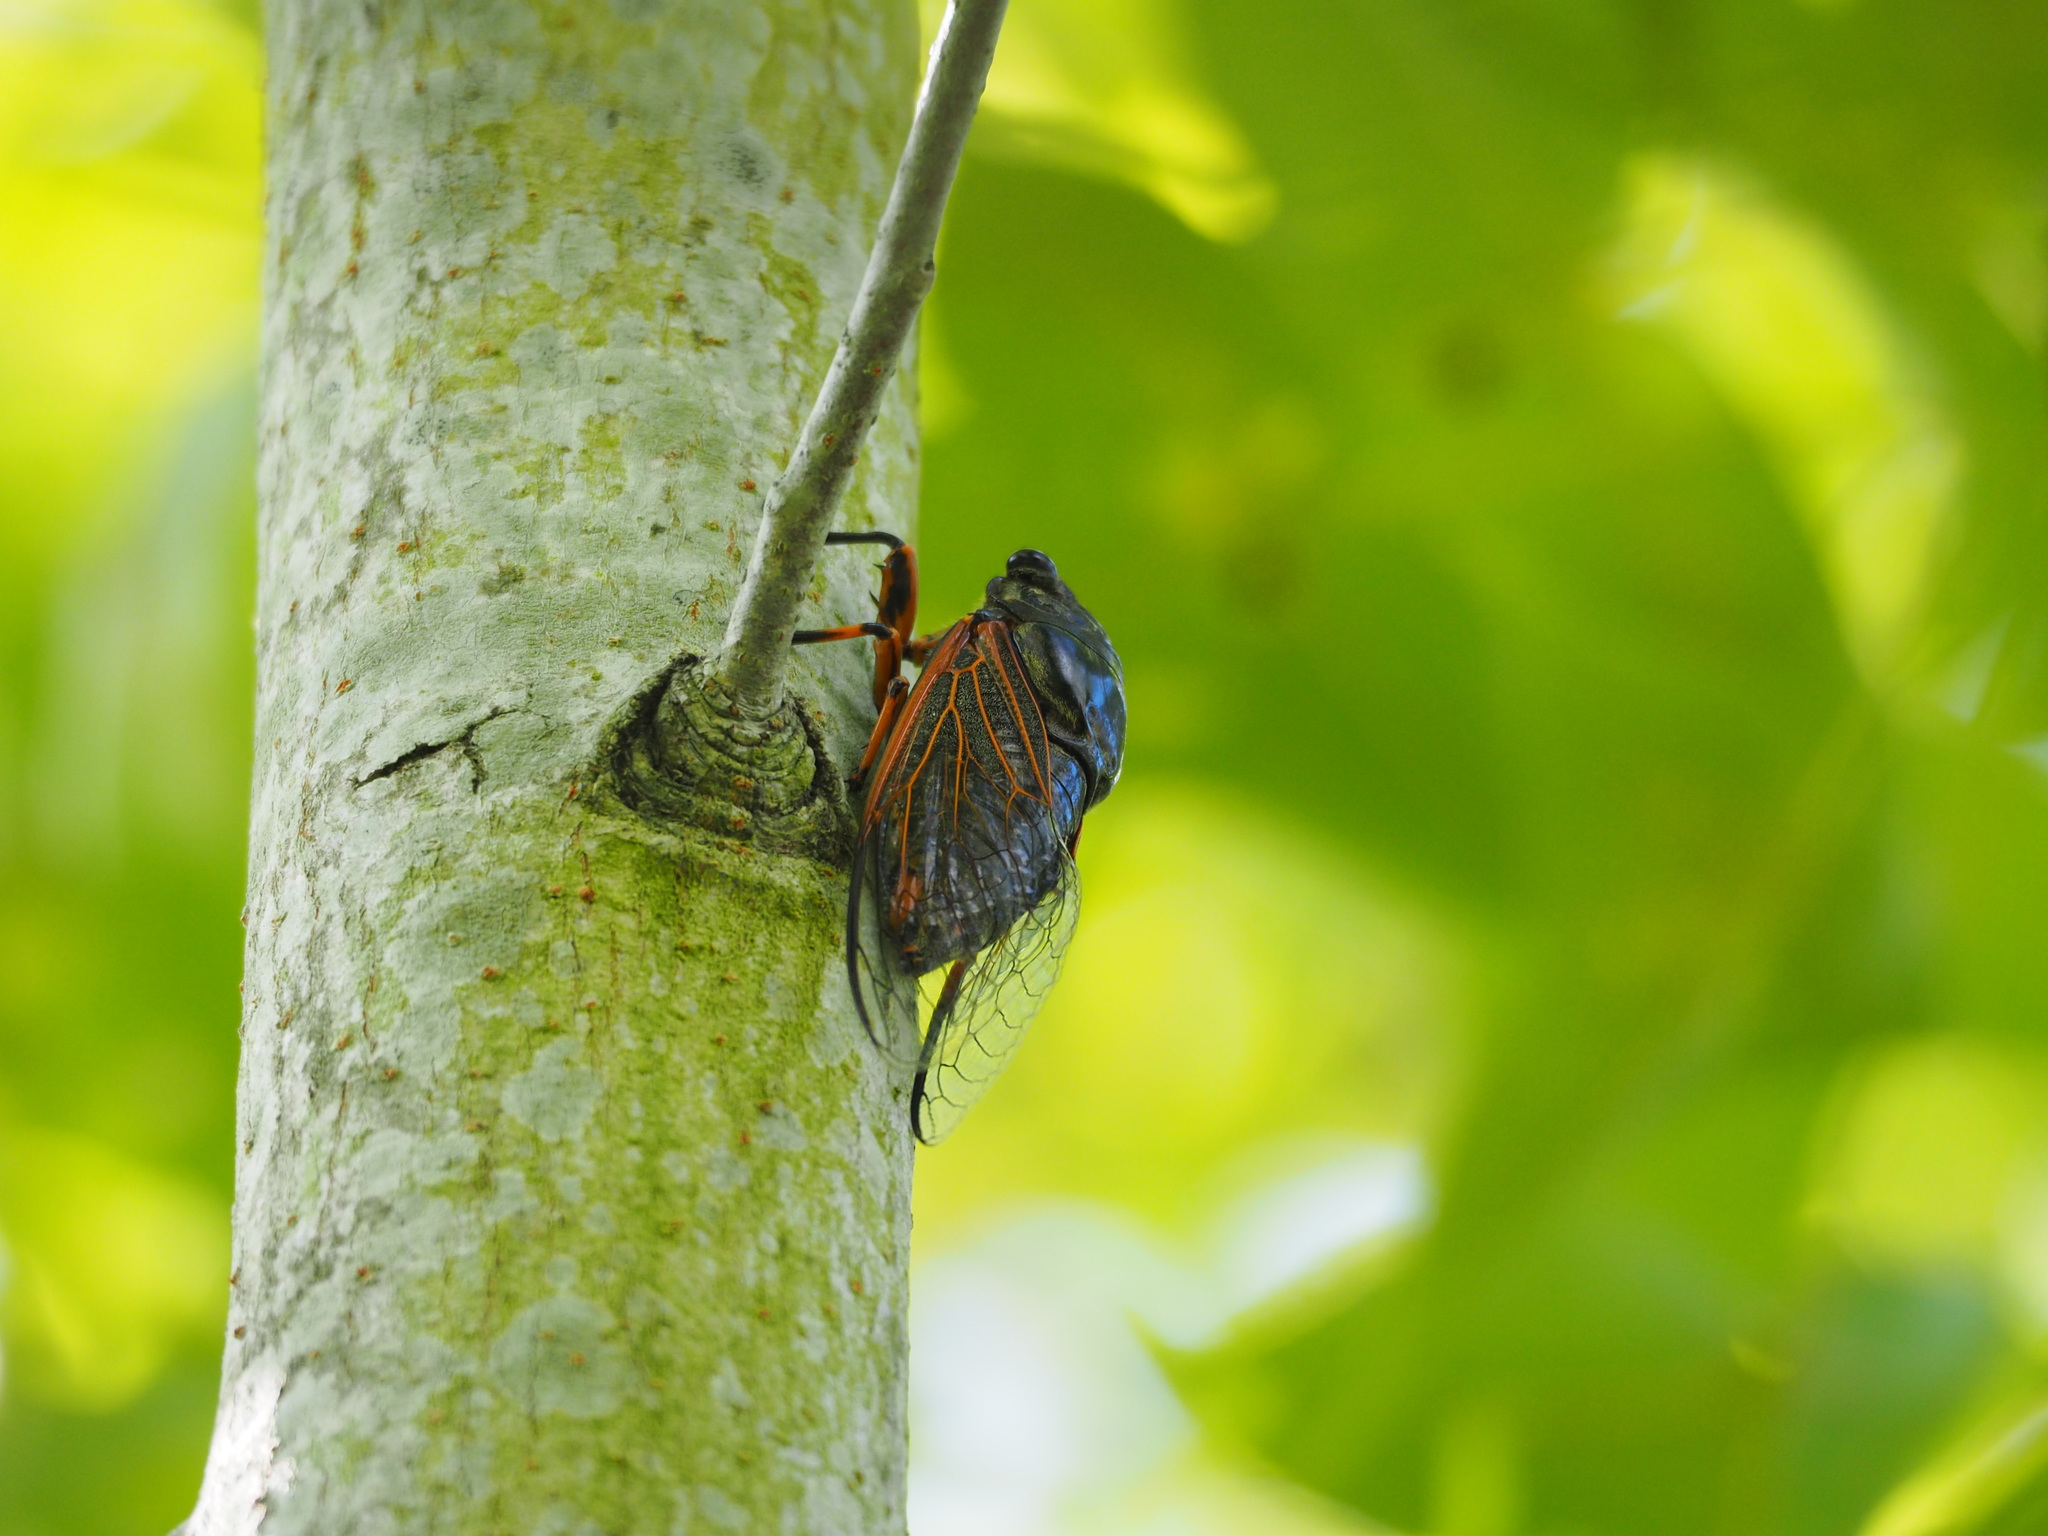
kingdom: Animalia
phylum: Arthropoda
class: Insecta
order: Hemiptera
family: Cicadidae
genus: Cryptotympana
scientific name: Cryptotympana atrata
